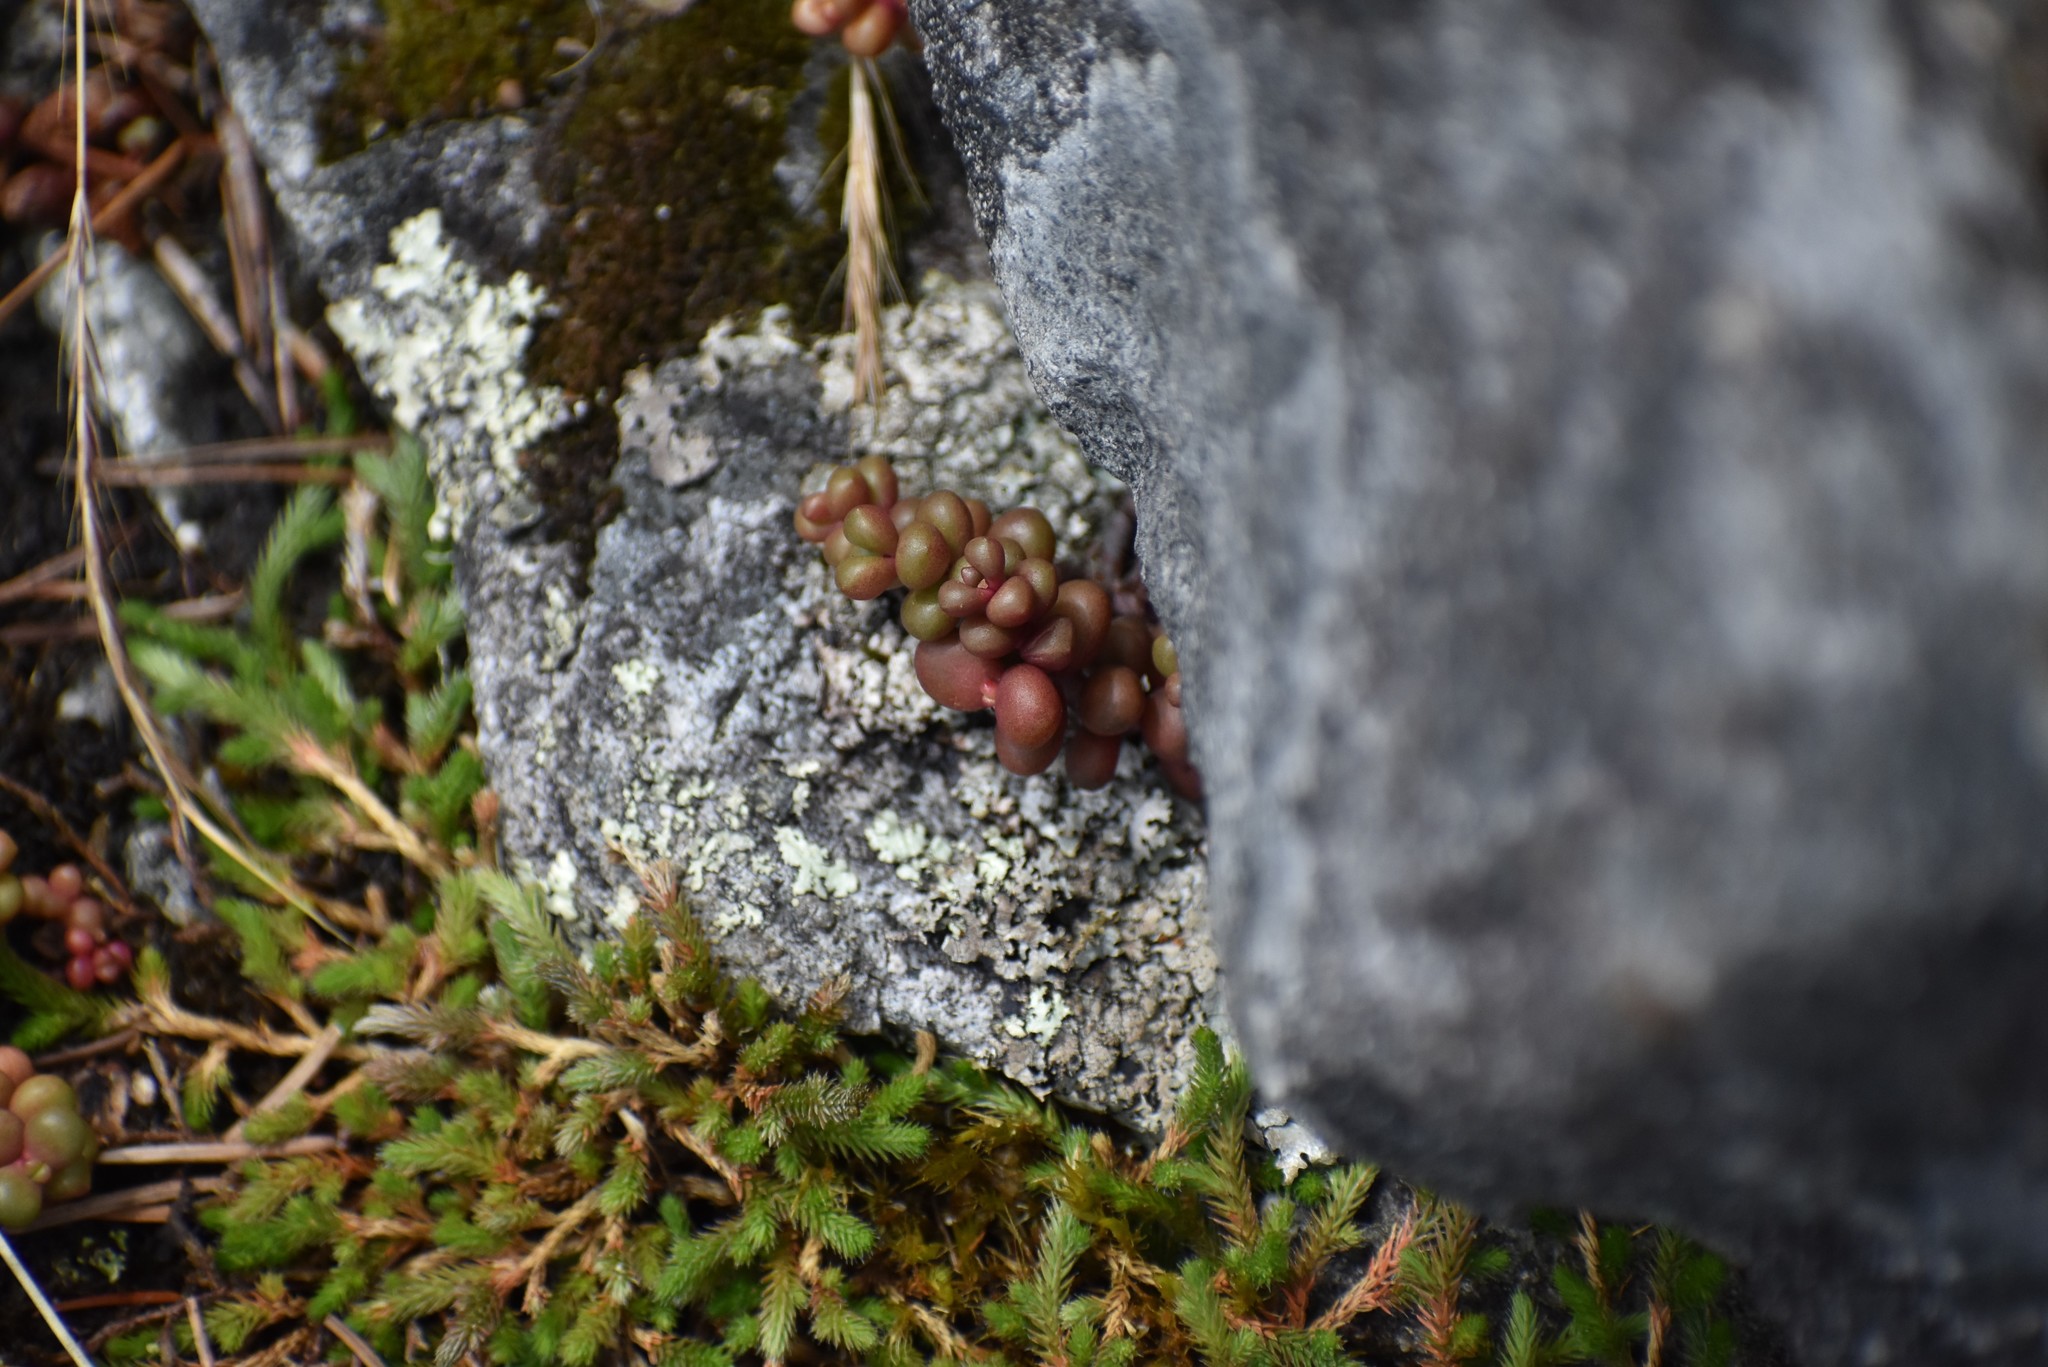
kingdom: Plantae
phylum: Tracheophyta
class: Magnoliopsida
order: Saxifragales
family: Crassulaceae
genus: Sedum
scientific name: Sedum divergens
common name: Cascade stonecrop
